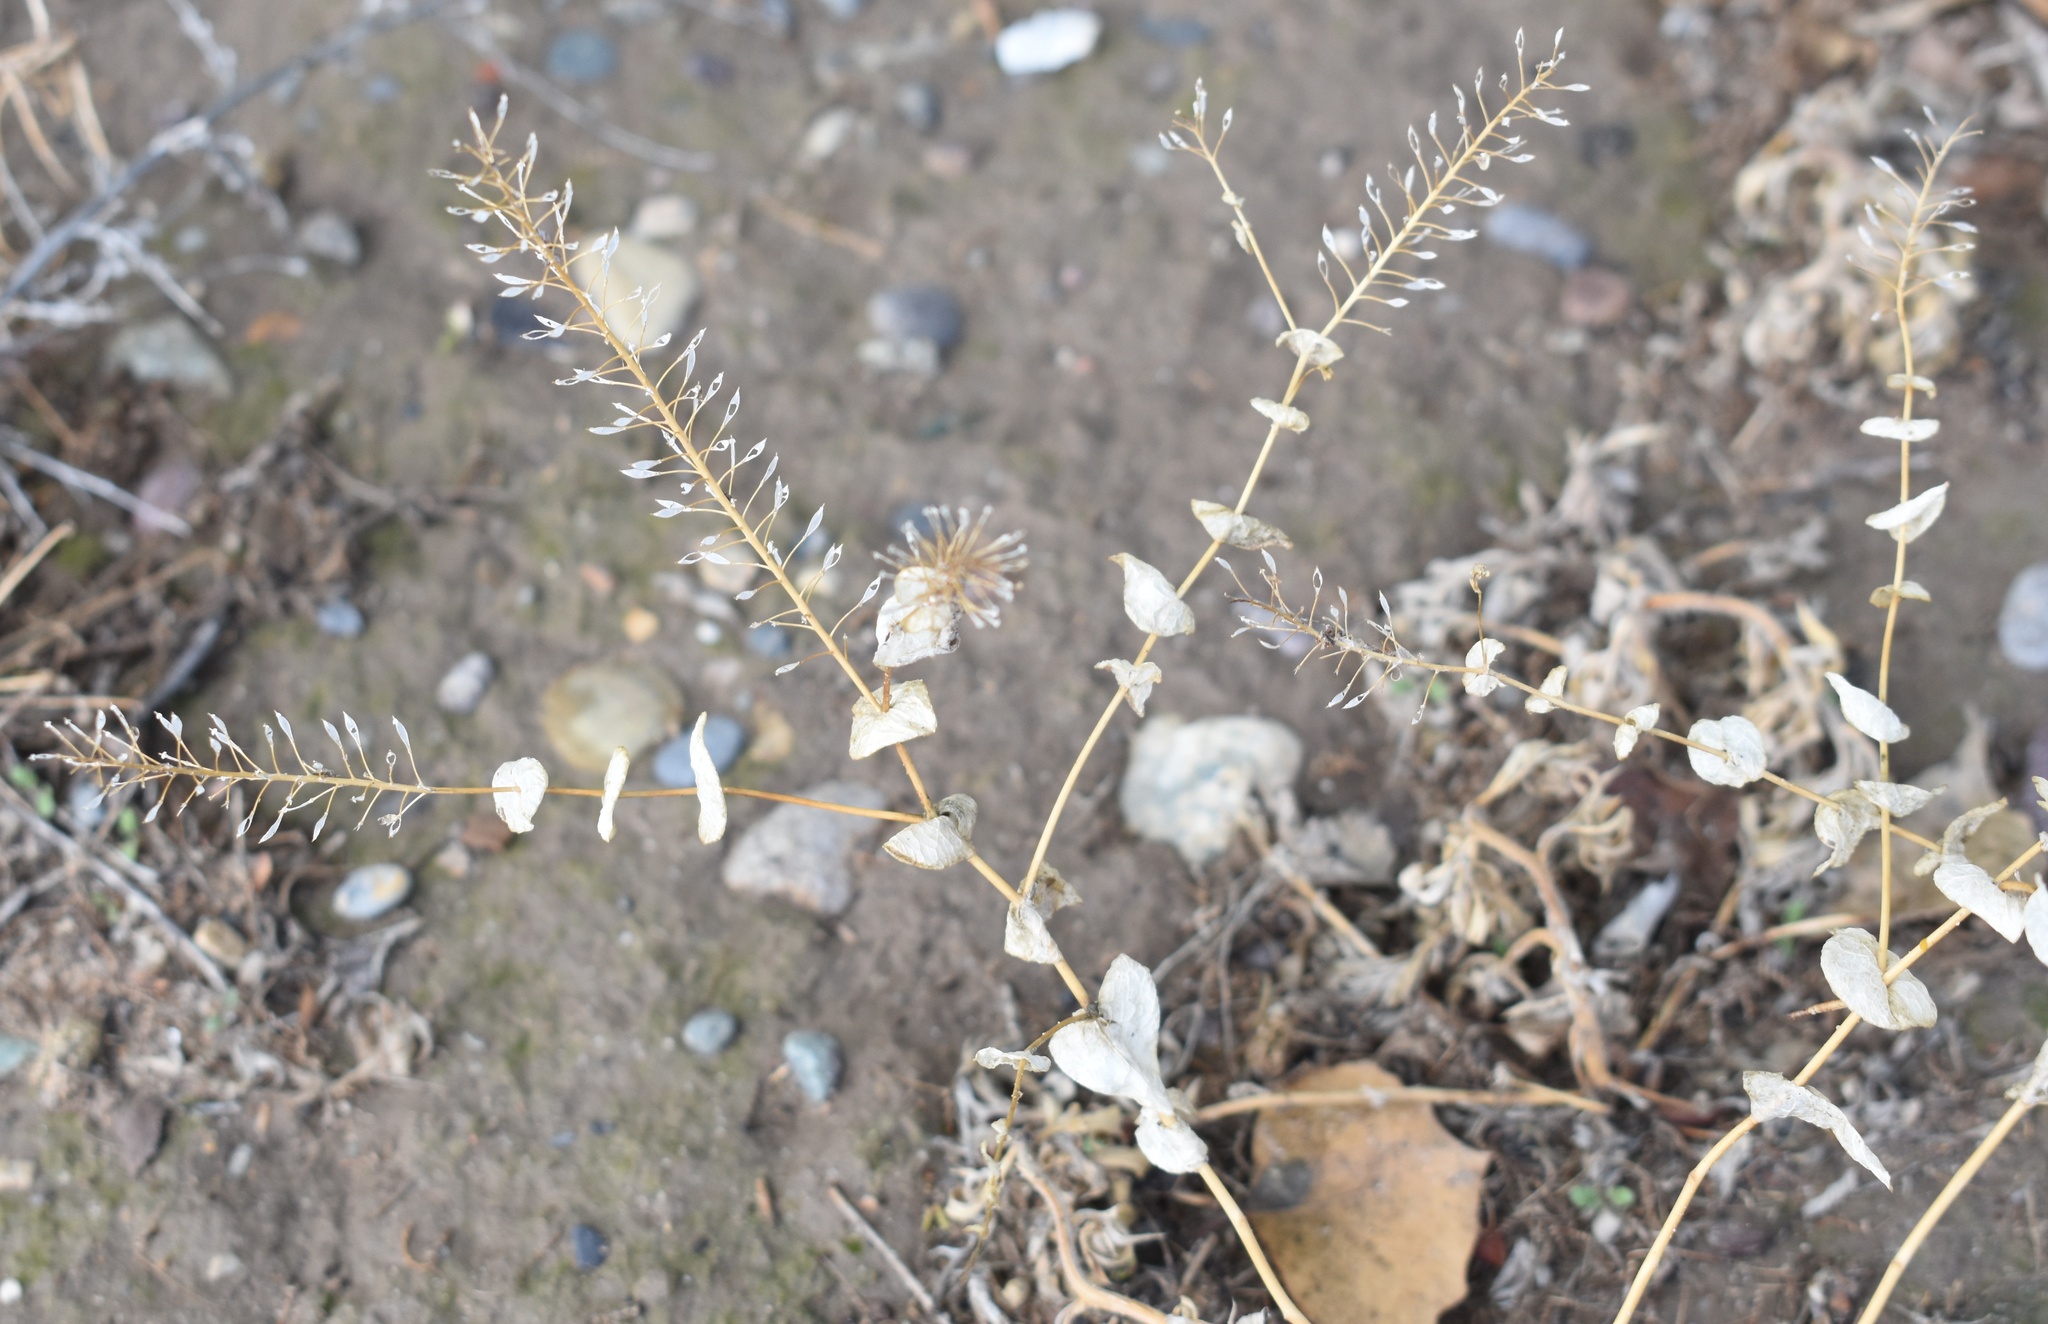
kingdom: Plantae
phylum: Tracheophyta
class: Magnoliopsida
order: Brassicales
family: Brassicaceae
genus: Lepidium
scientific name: Lepidium perfoliatum
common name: Perfoliate pepperwort
